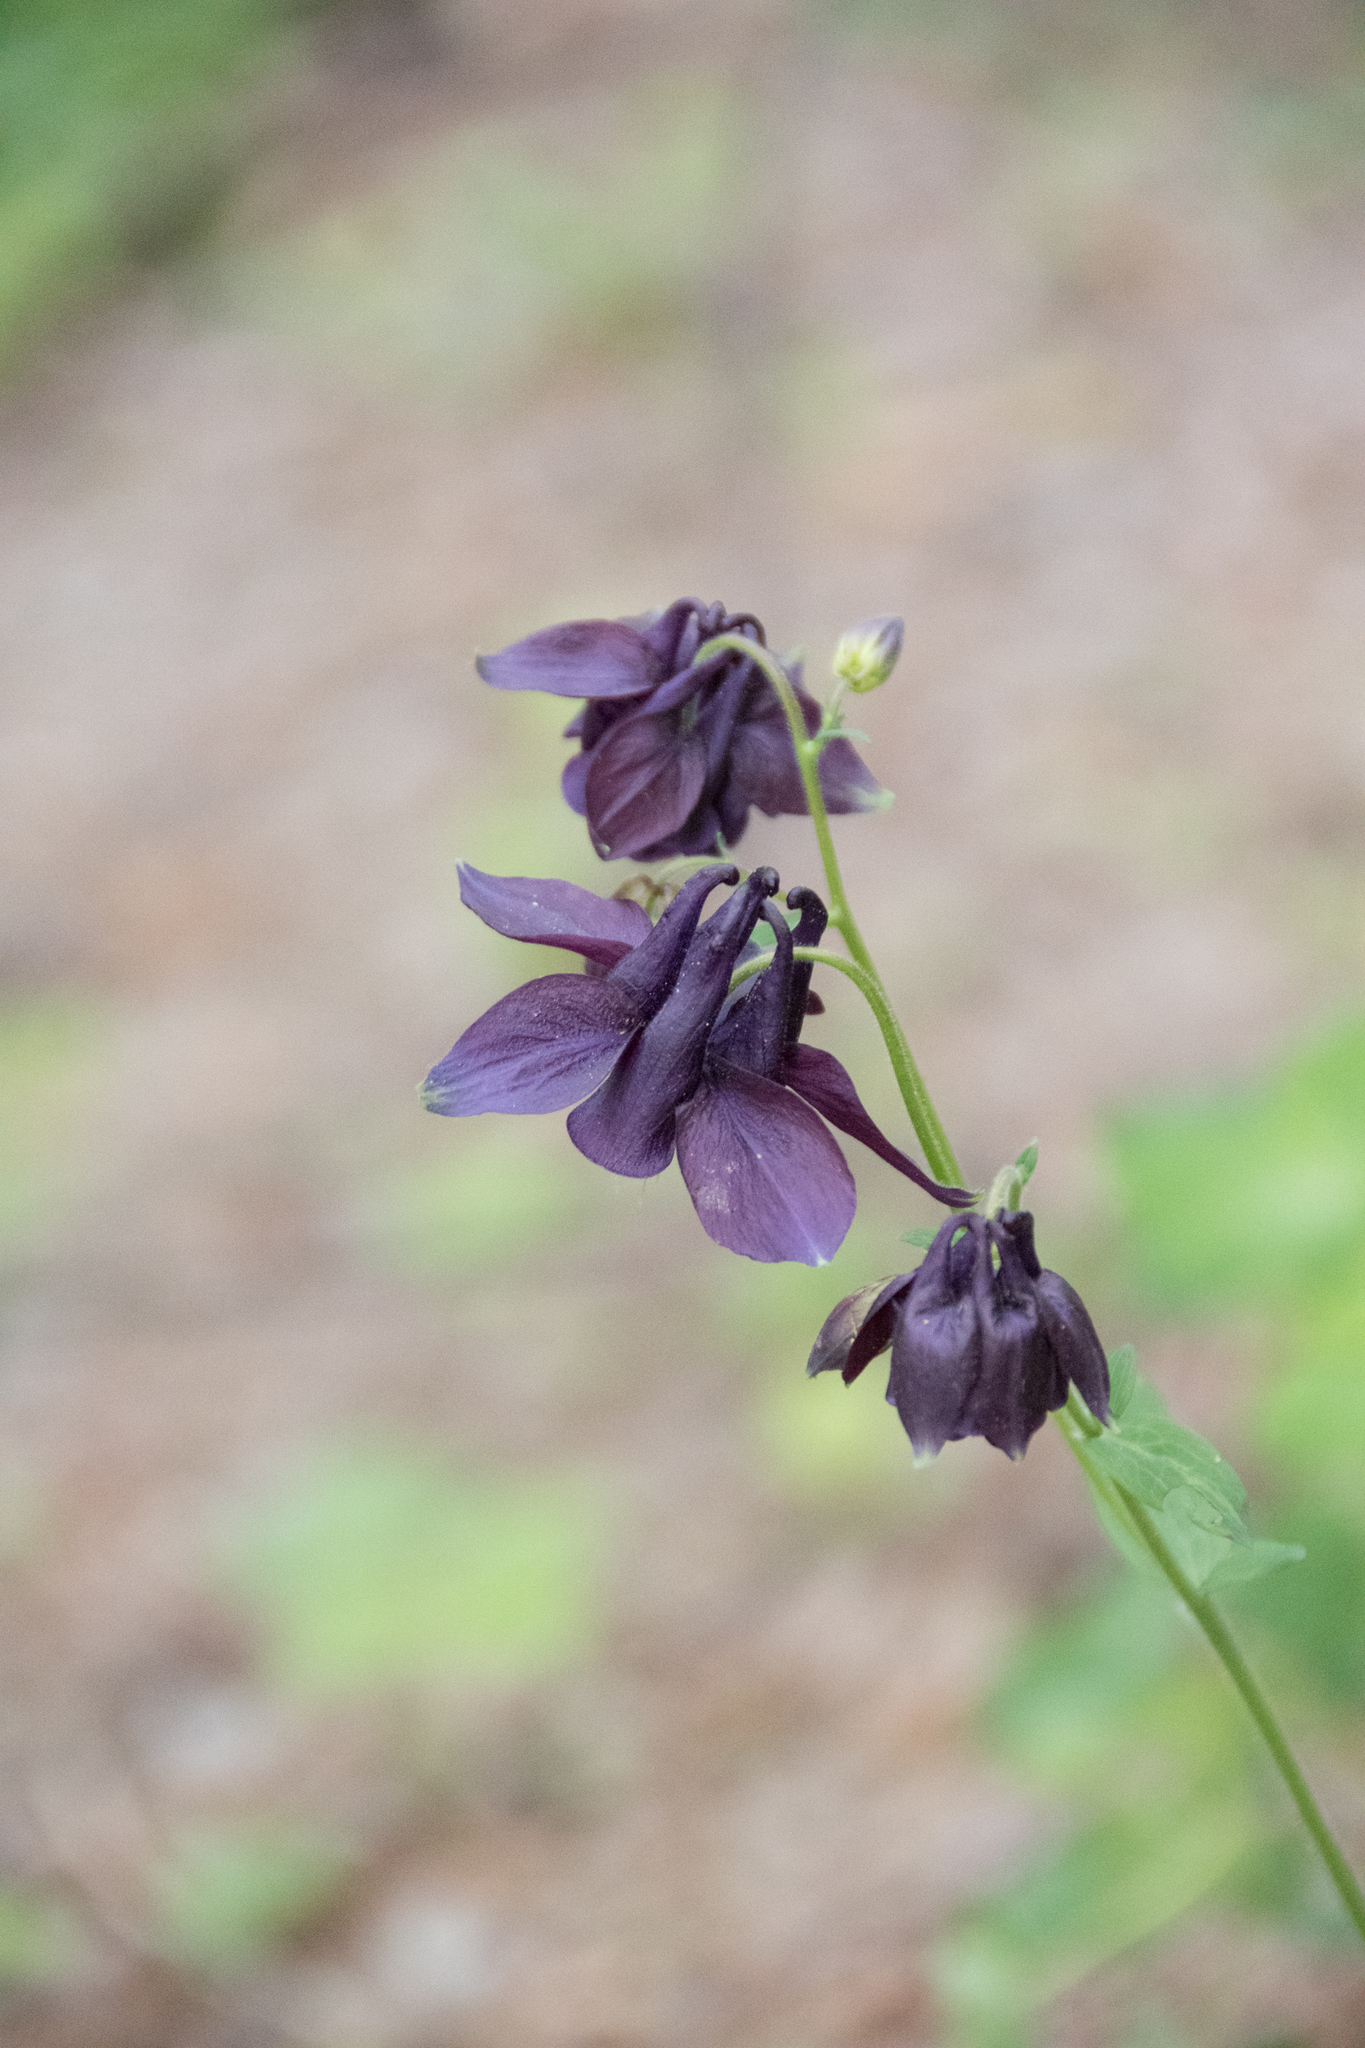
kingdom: Plantae
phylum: Tracheophyta
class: Magnoliopsida
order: Ranunculales
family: Ranunculaceae
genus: Aquilegia
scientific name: Aquilegia atrata
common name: Dark columbine
